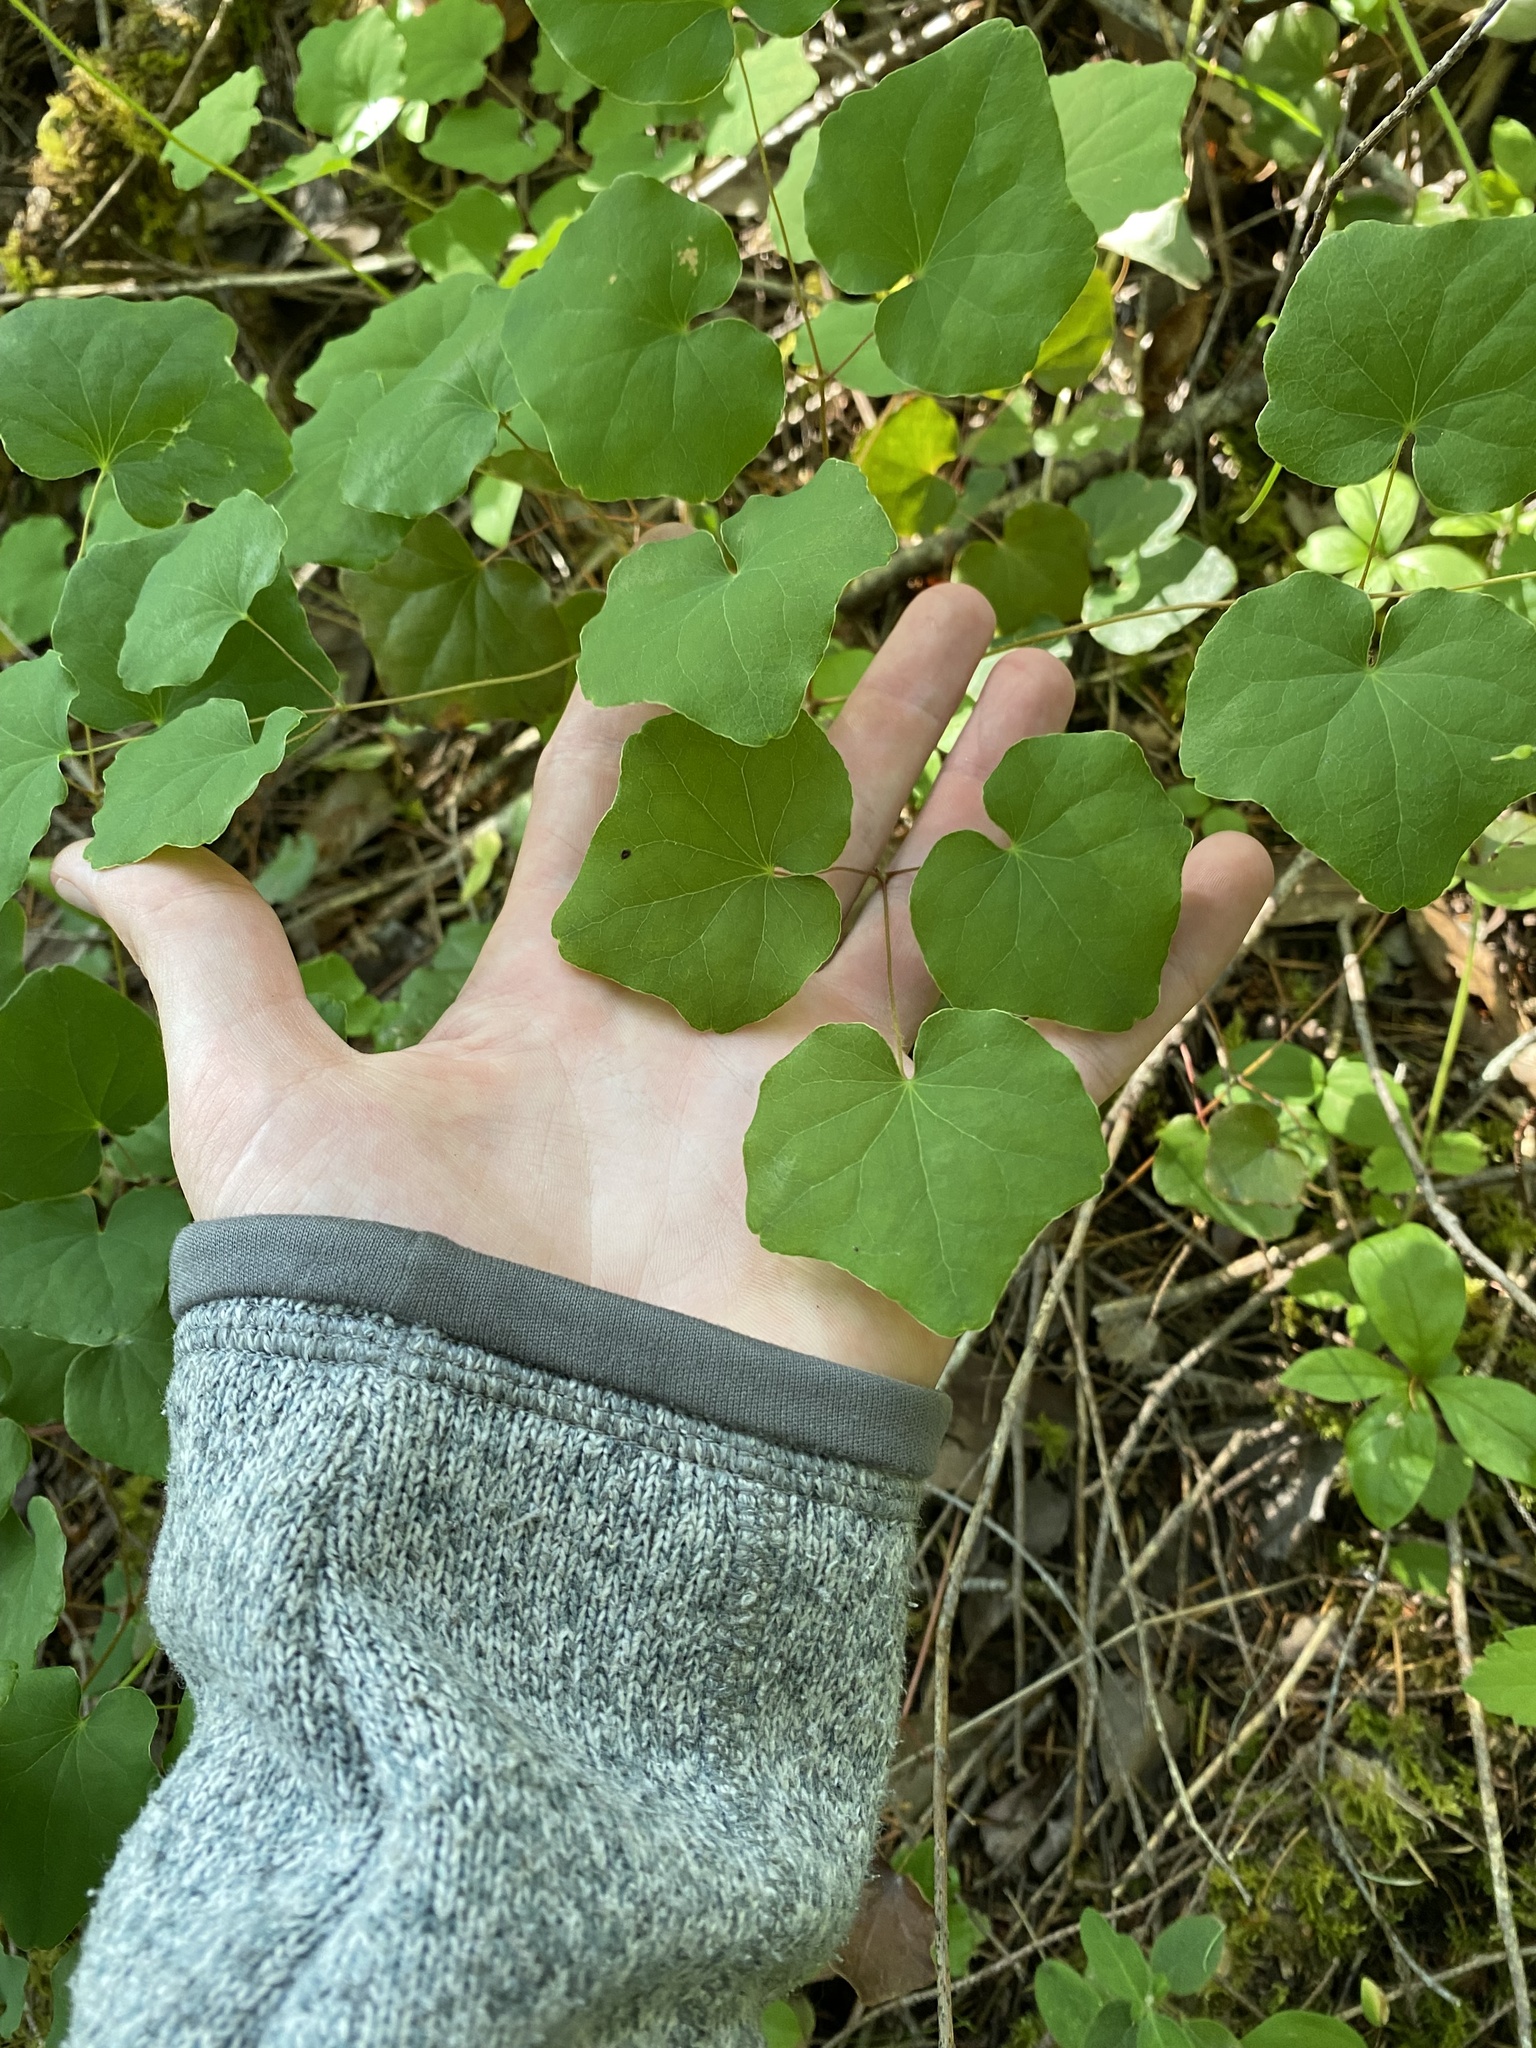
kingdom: Plantae
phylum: Tracheophyta
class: Magnoliopsida
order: Ranunculales
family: Berberidaceae
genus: Vancouveria
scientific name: Vancouveria planipetala
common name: Redwood-ivy
